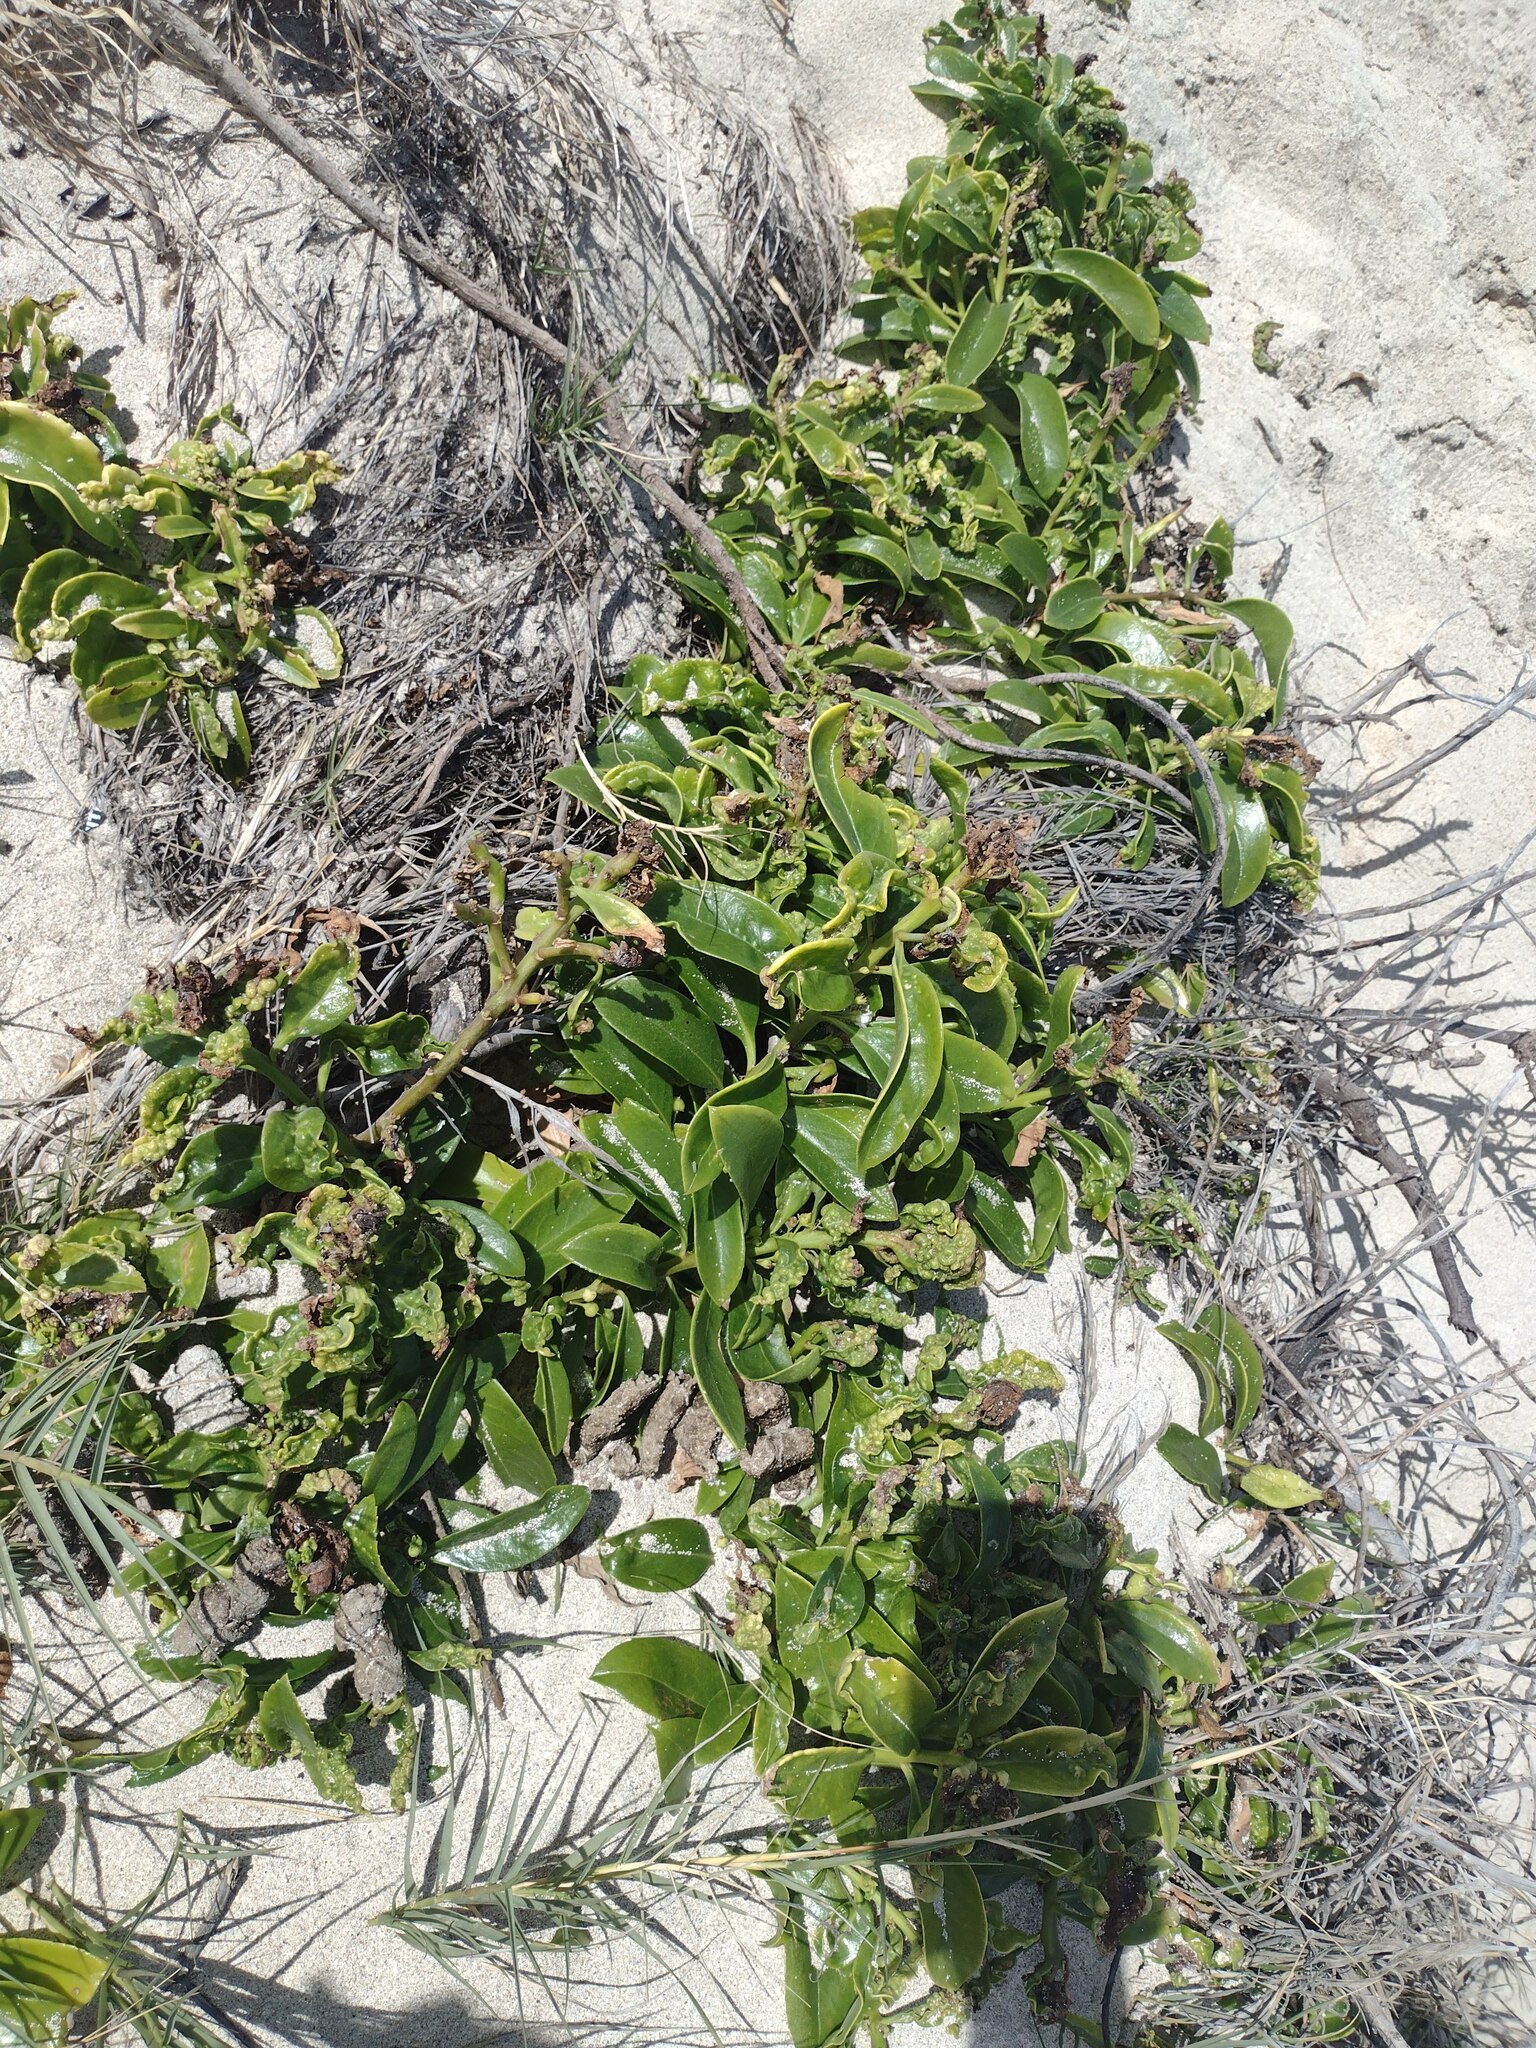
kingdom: Plantae
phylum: Tracheophyta
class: Magnoliopsida
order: Lamiales
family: Scrophulariaceae
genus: Myoporum
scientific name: Myoporum sandwicense
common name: Bastard-sandalwood
